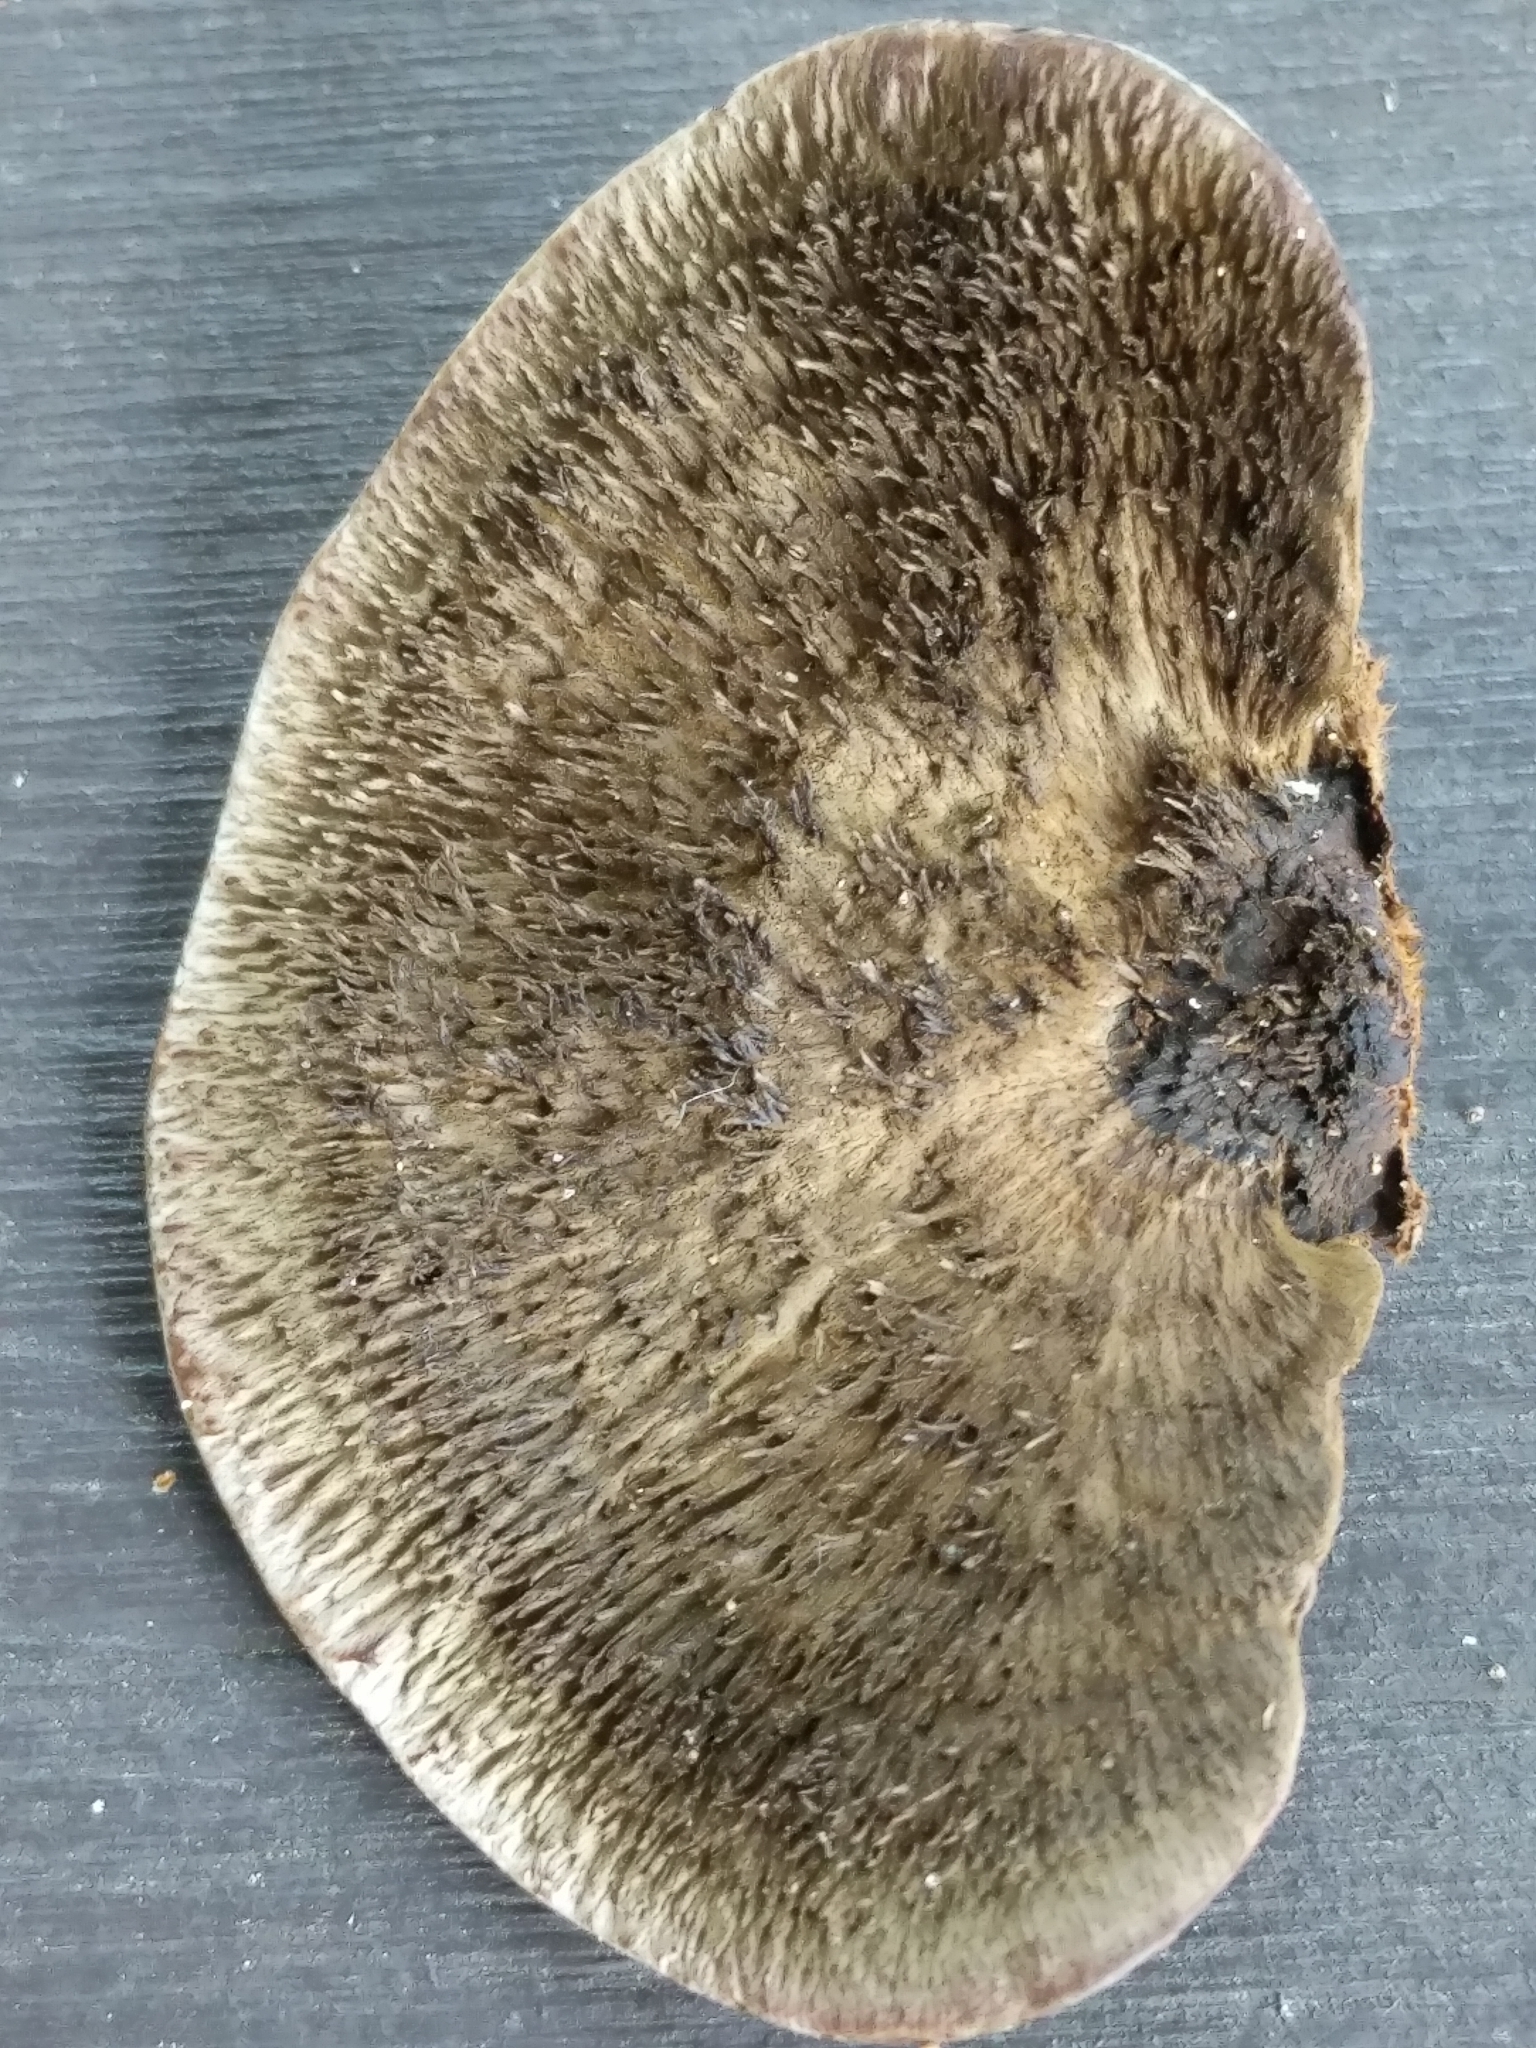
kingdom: Fungi
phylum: Basidiomycota
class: Agaricomycetes
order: Polyporales
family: Cerrenaceae
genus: Cerrena
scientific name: Cerrena hydnoides
